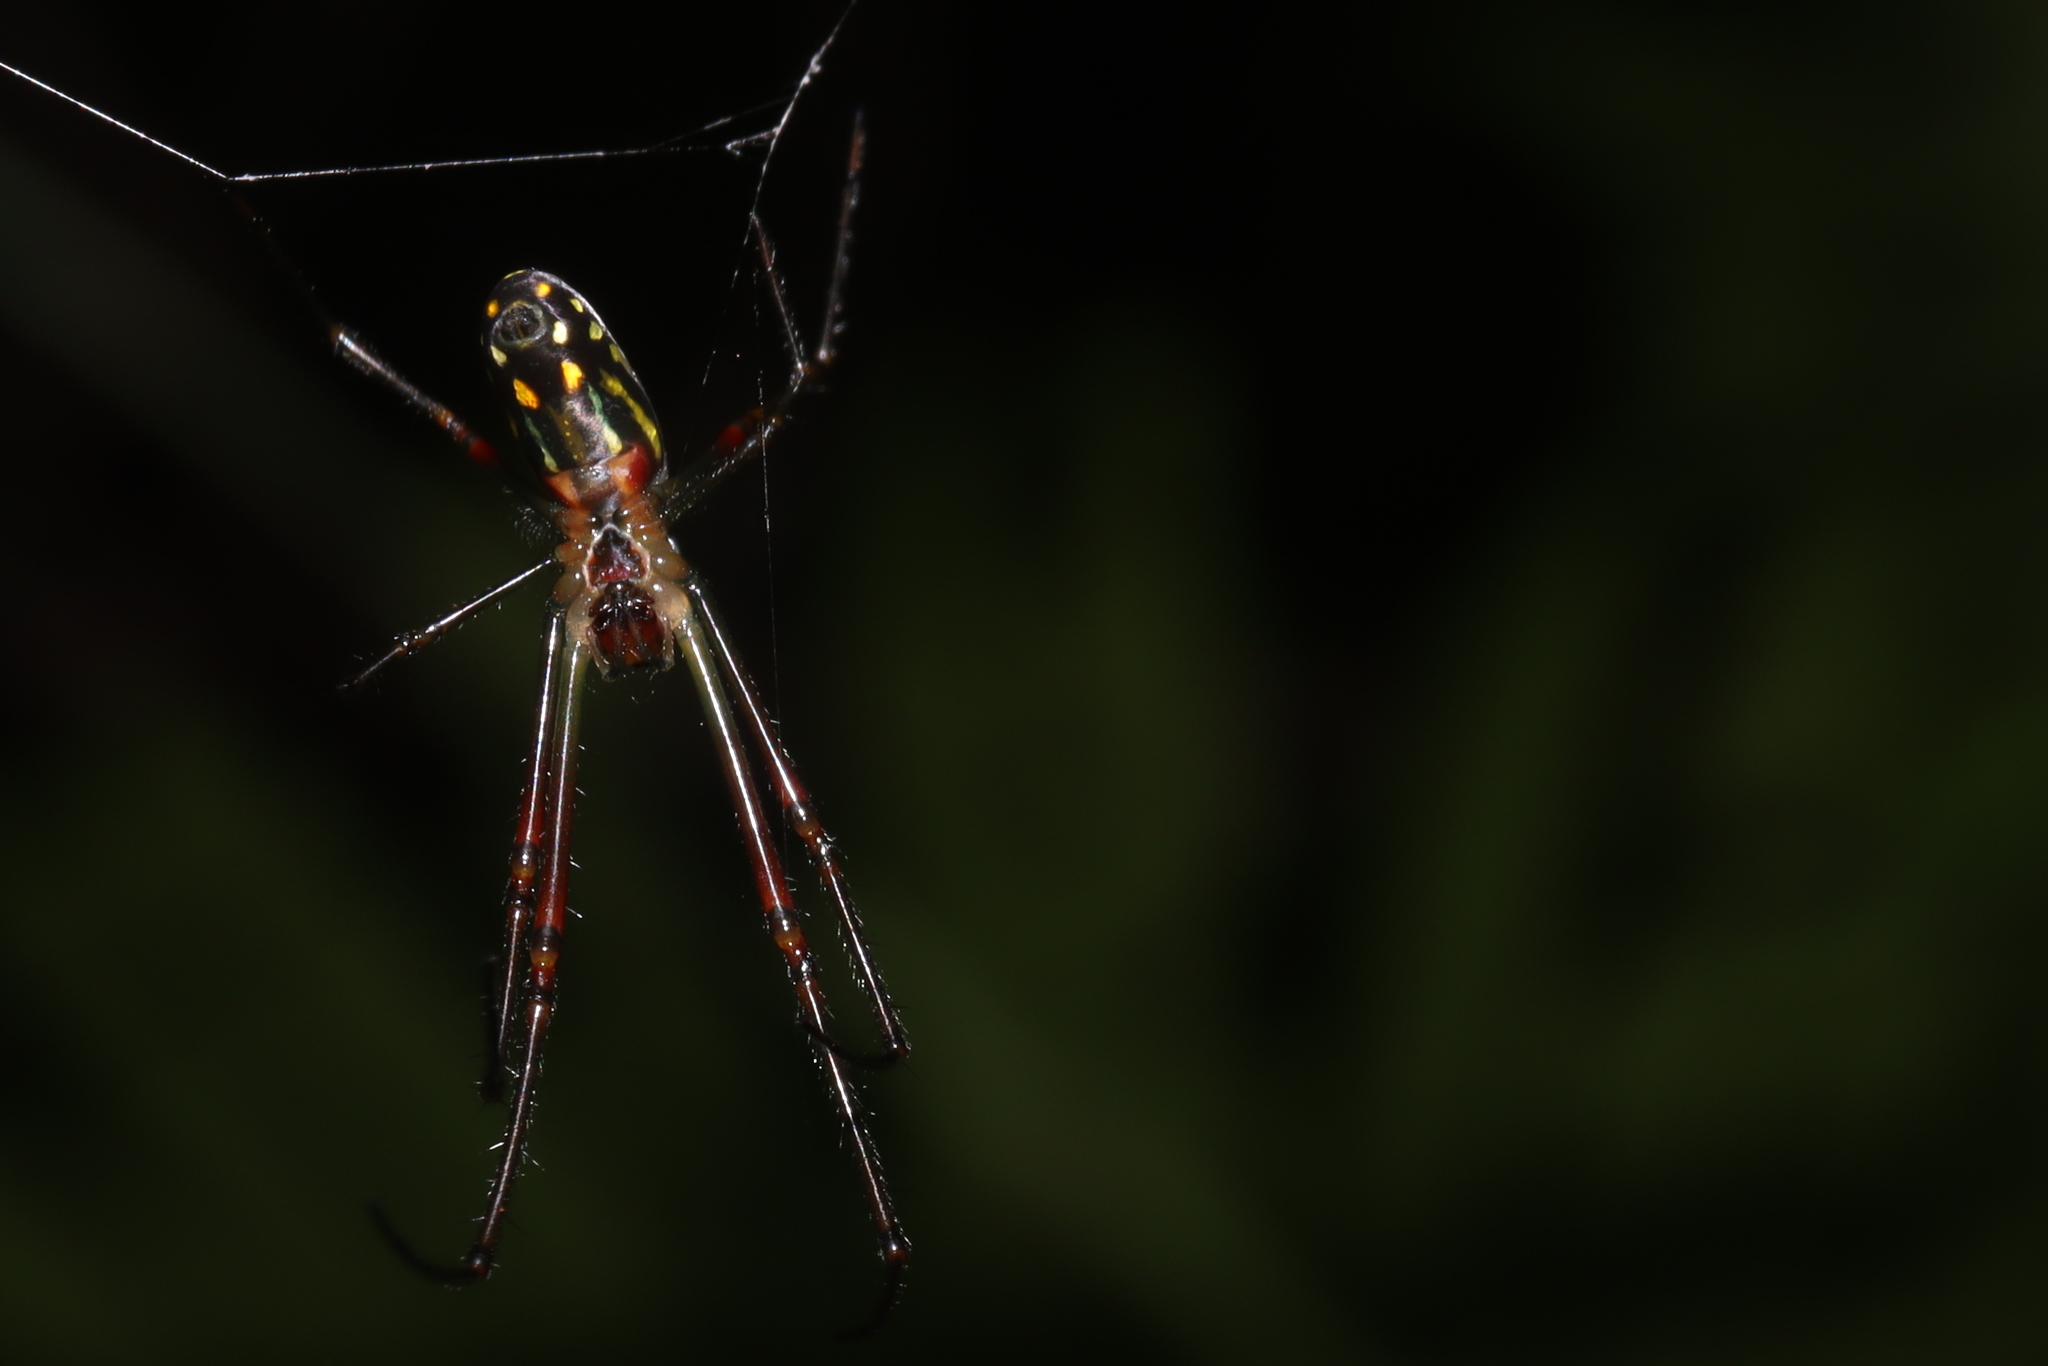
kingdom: Animalia
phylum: Arthropoda
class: Arachnida
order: Araneae
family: Tetragnathidae
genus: Leucauge
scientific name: Leucauge argyra
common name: Longjawed orb weavers
